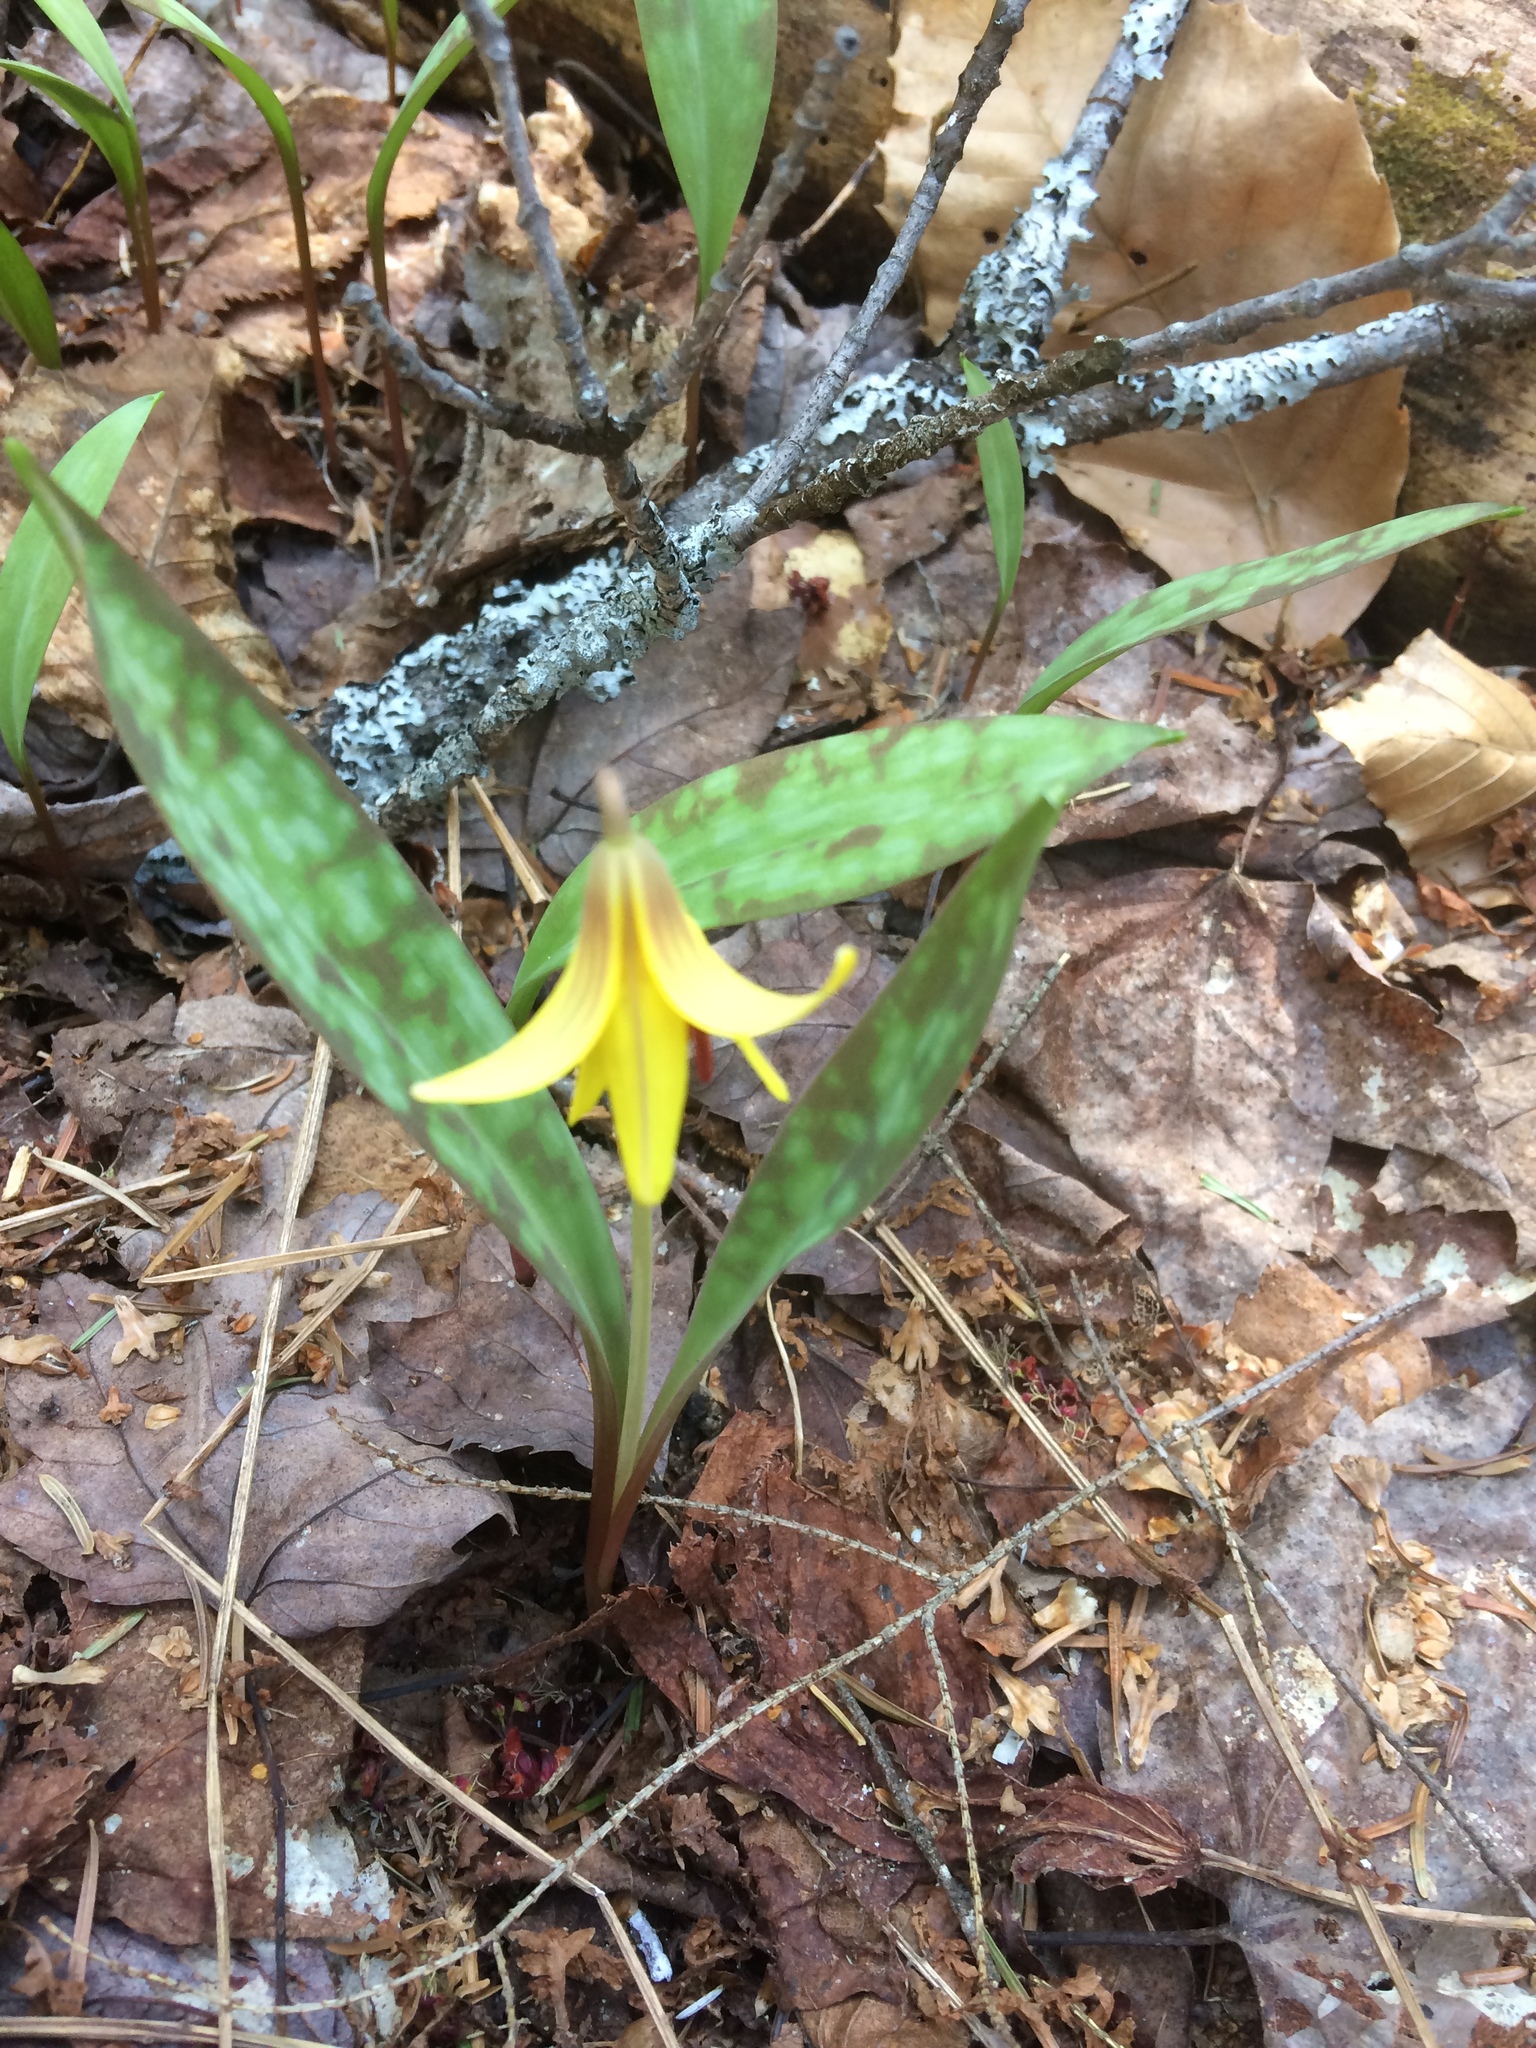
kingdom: Plantae
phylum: Tracheophyta
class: Liliopsida
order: Liliales
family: Liliaceae
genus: Erythronium
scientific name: Erythronium americanum
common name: Yellow adder's-tongue
